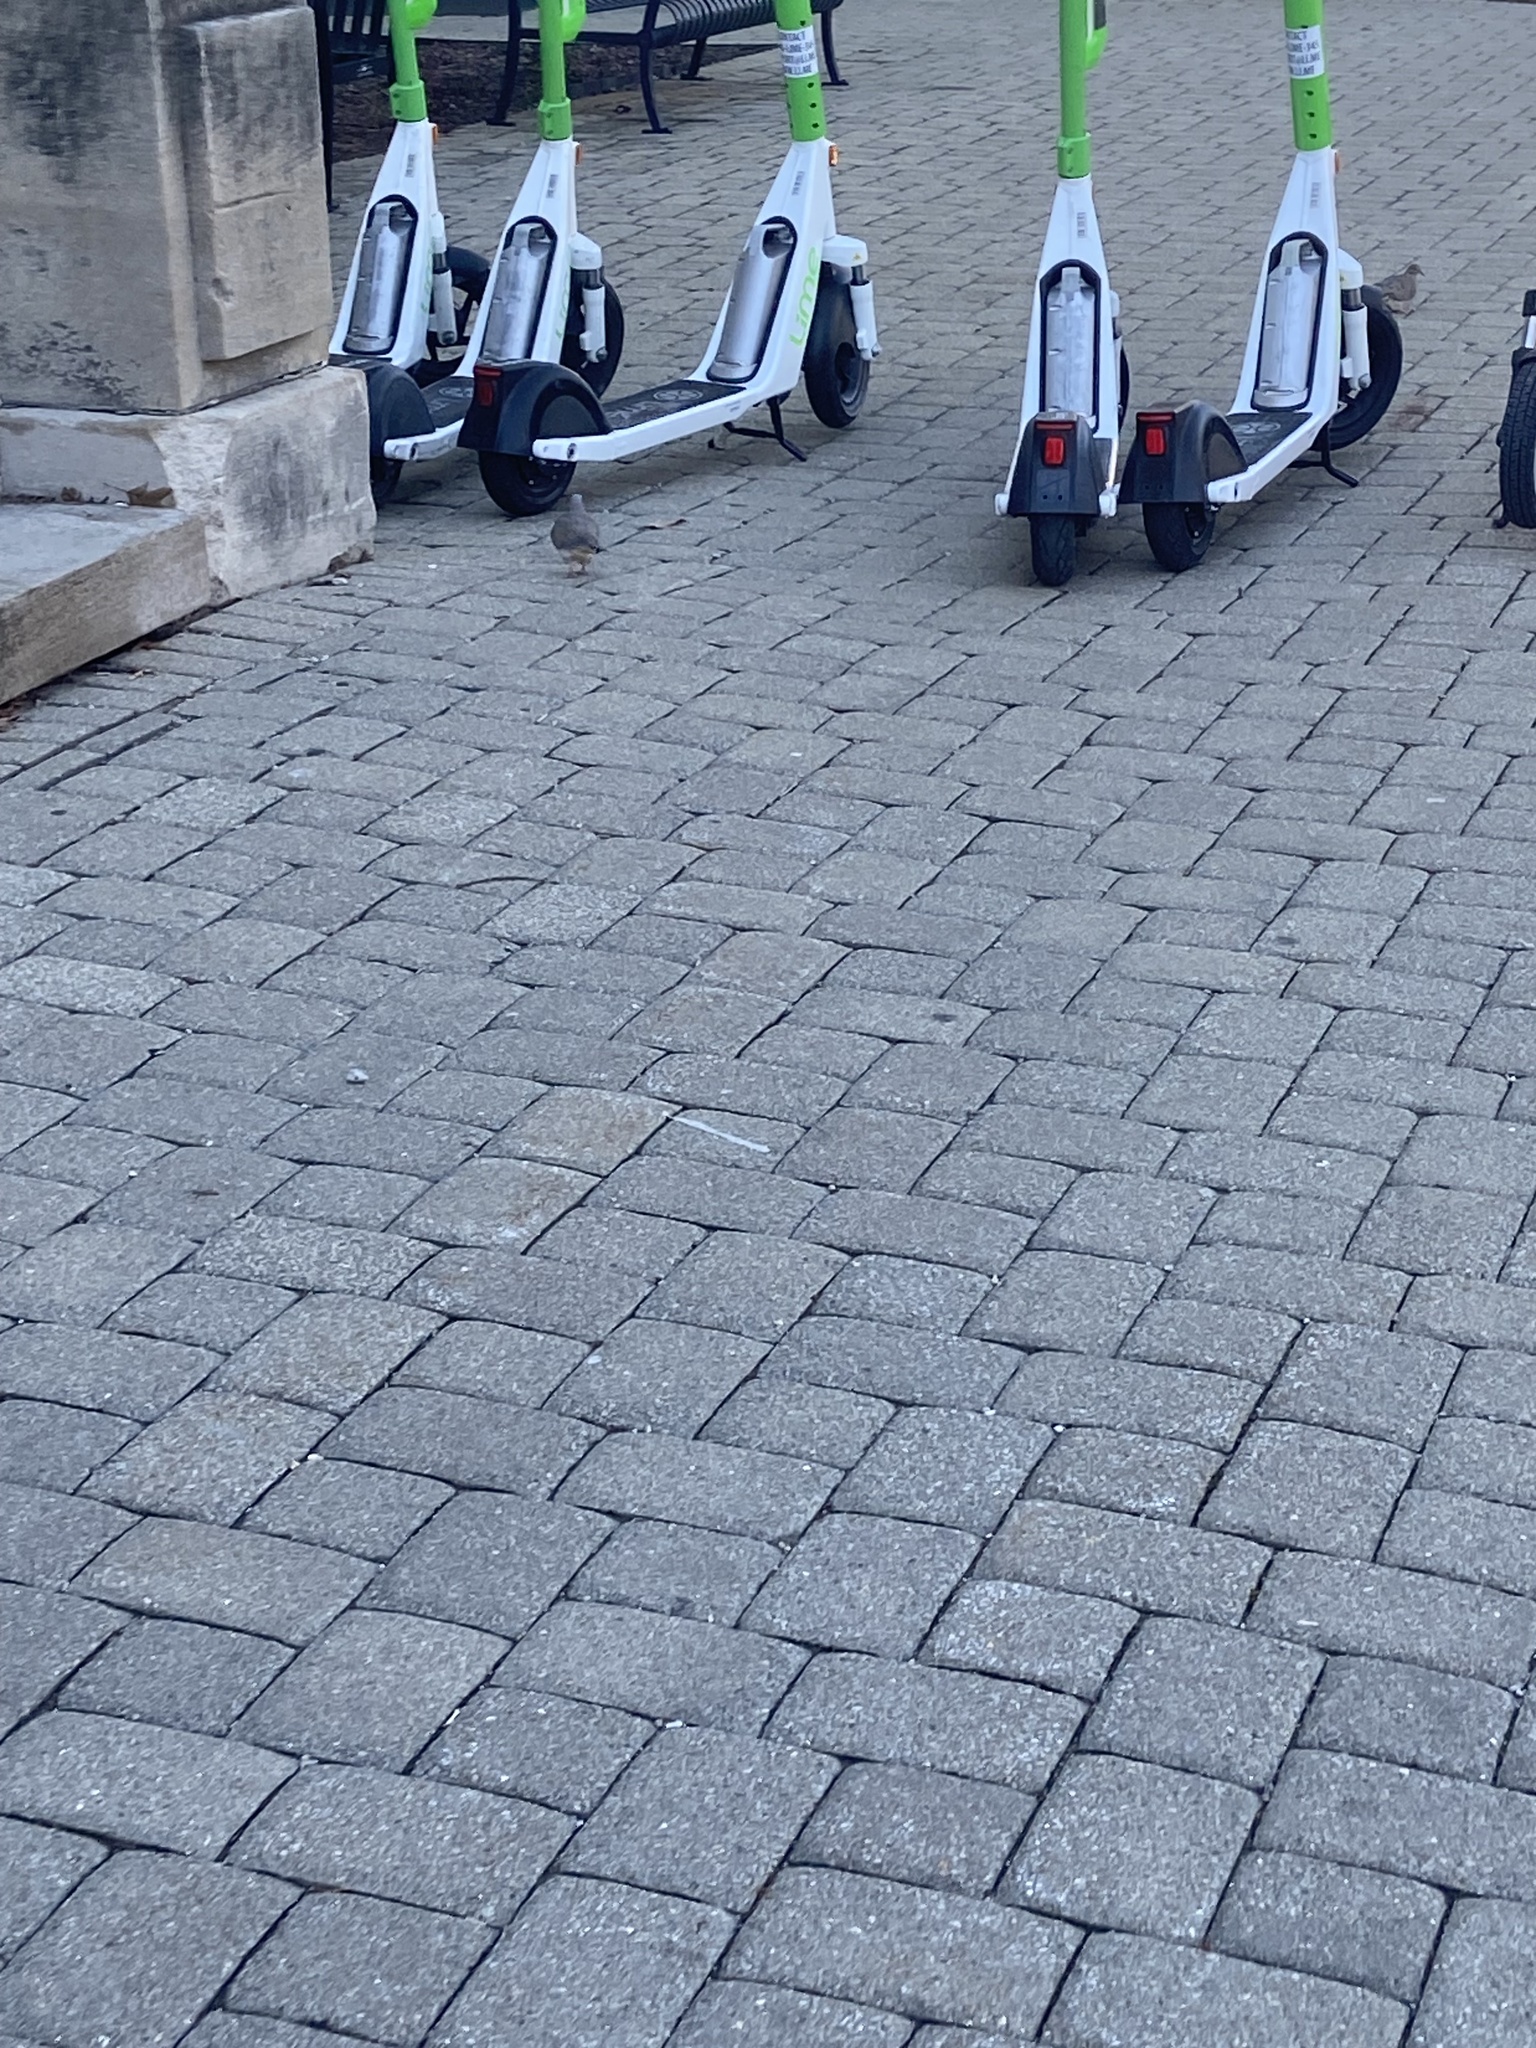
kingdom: Animalia
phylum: Chordata
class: Aves
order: Columbiformes
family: Columbidae
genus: Zenaida
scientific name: Zenaida macroura
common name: Mourning dove
